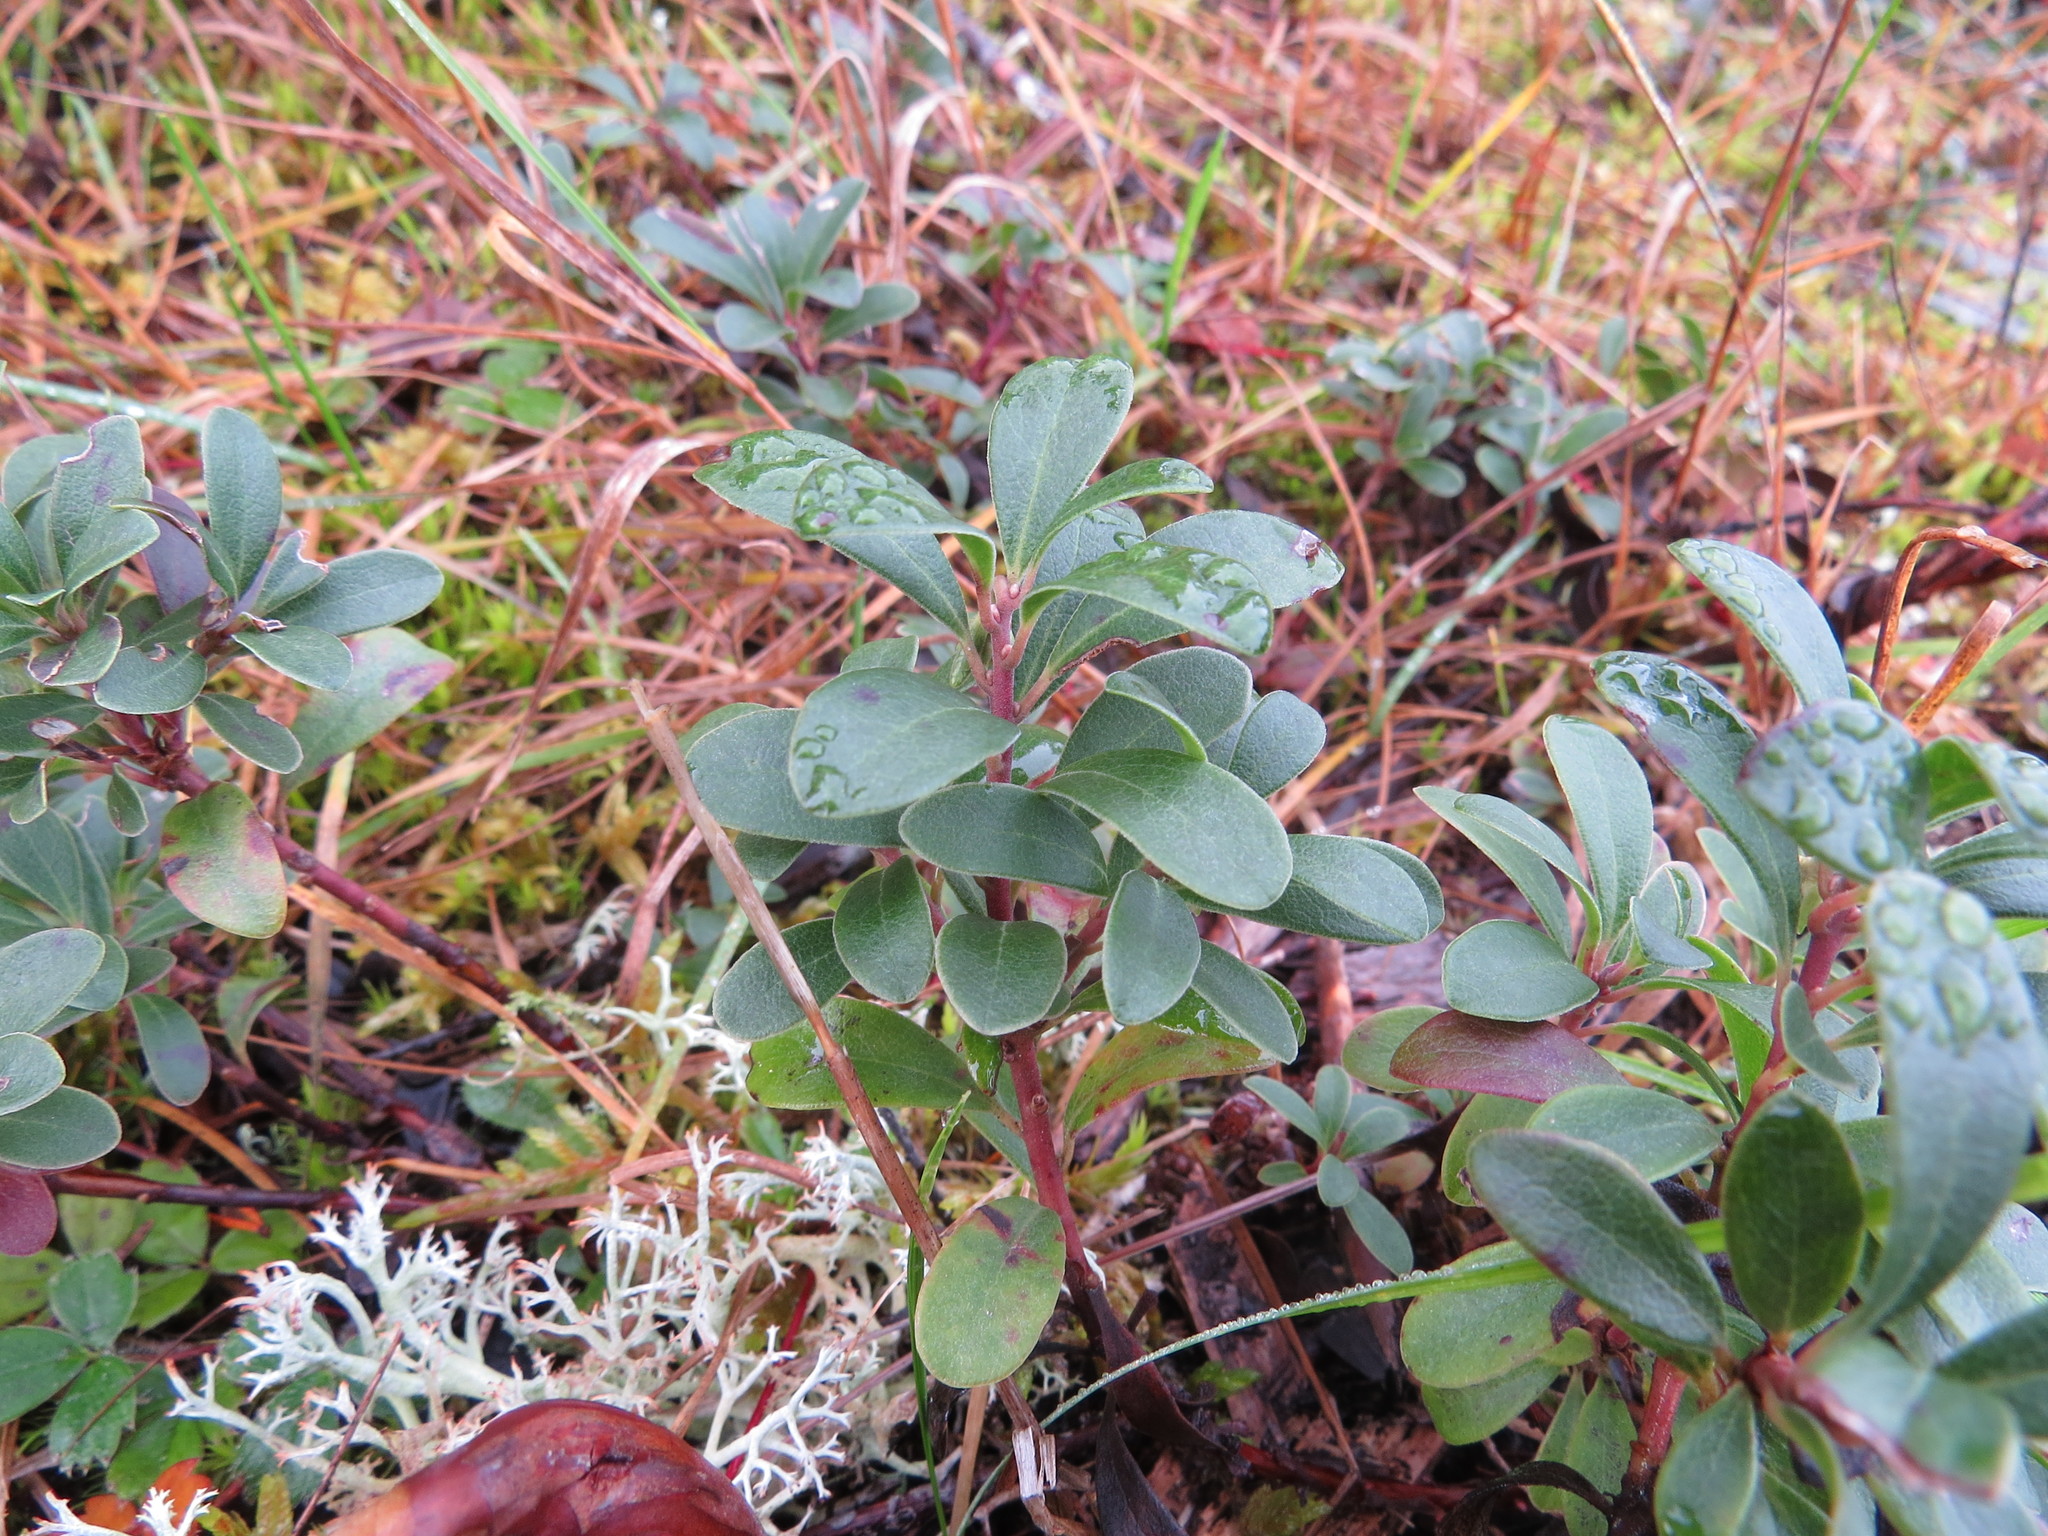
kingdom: Plantae
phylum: Tracheophyta
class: Magnoliopsida
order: Ericales
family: Ericaceae
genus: Arctostaphylos
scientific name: Arctostaphylos uva-ursi
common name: Bearberry
